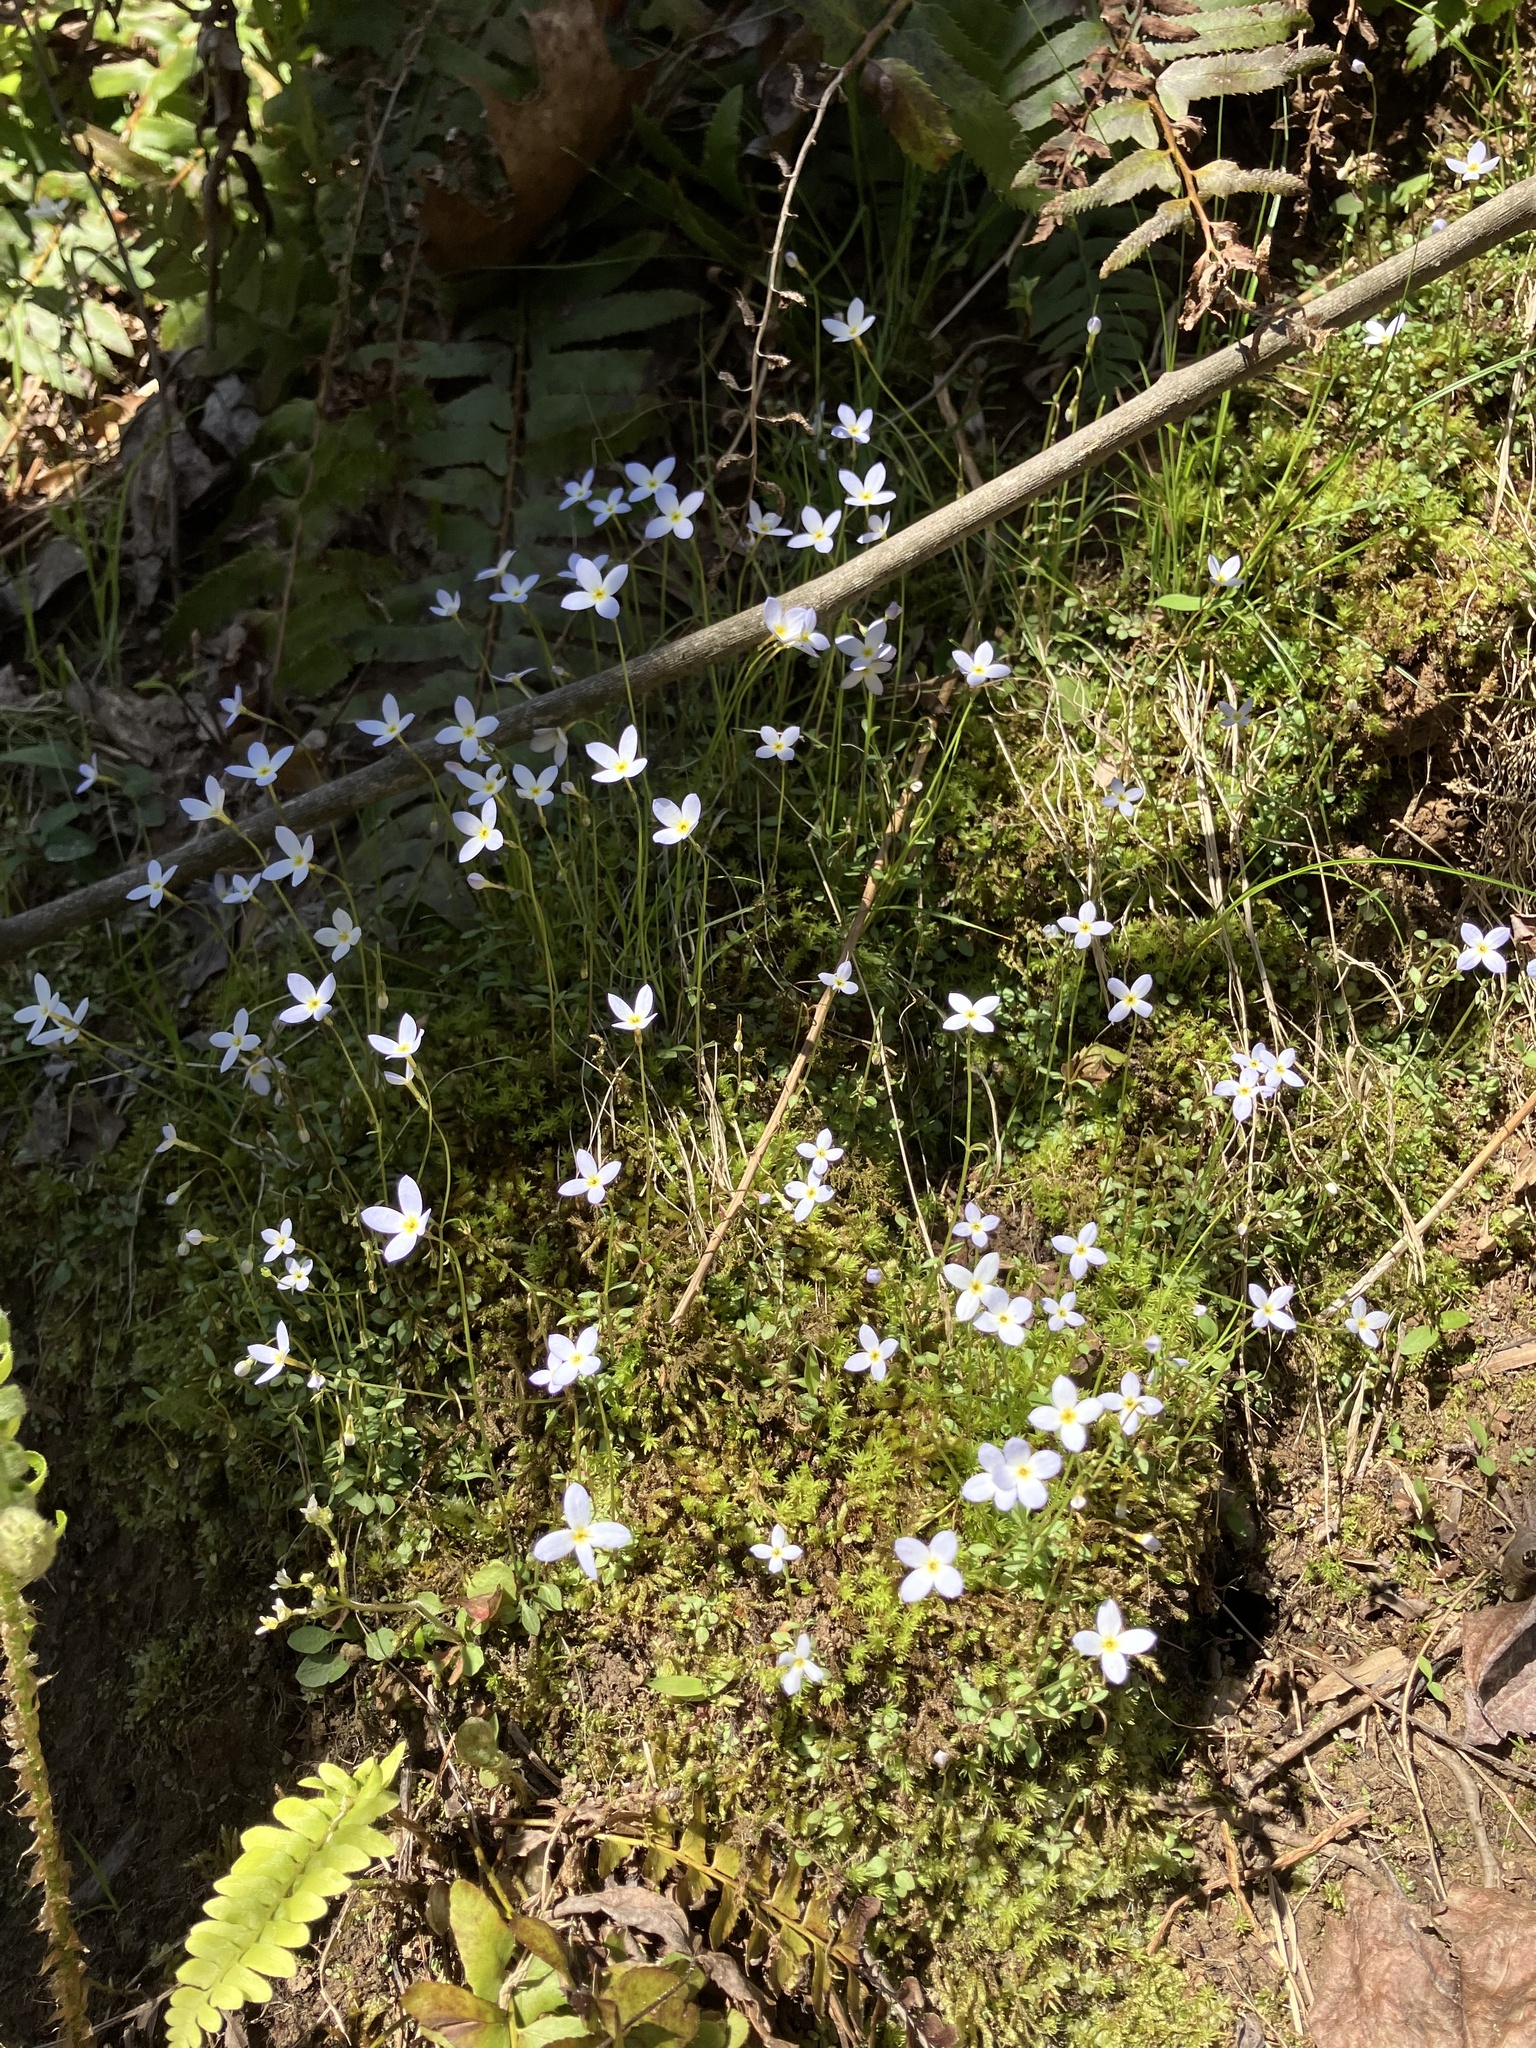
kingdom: Plantae
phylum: Tracheophyta
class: Magnoliopsida
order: Gentianales
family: Rubiaceae
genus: Houstonia
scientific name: Houstonia caerulea
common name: Bluets
